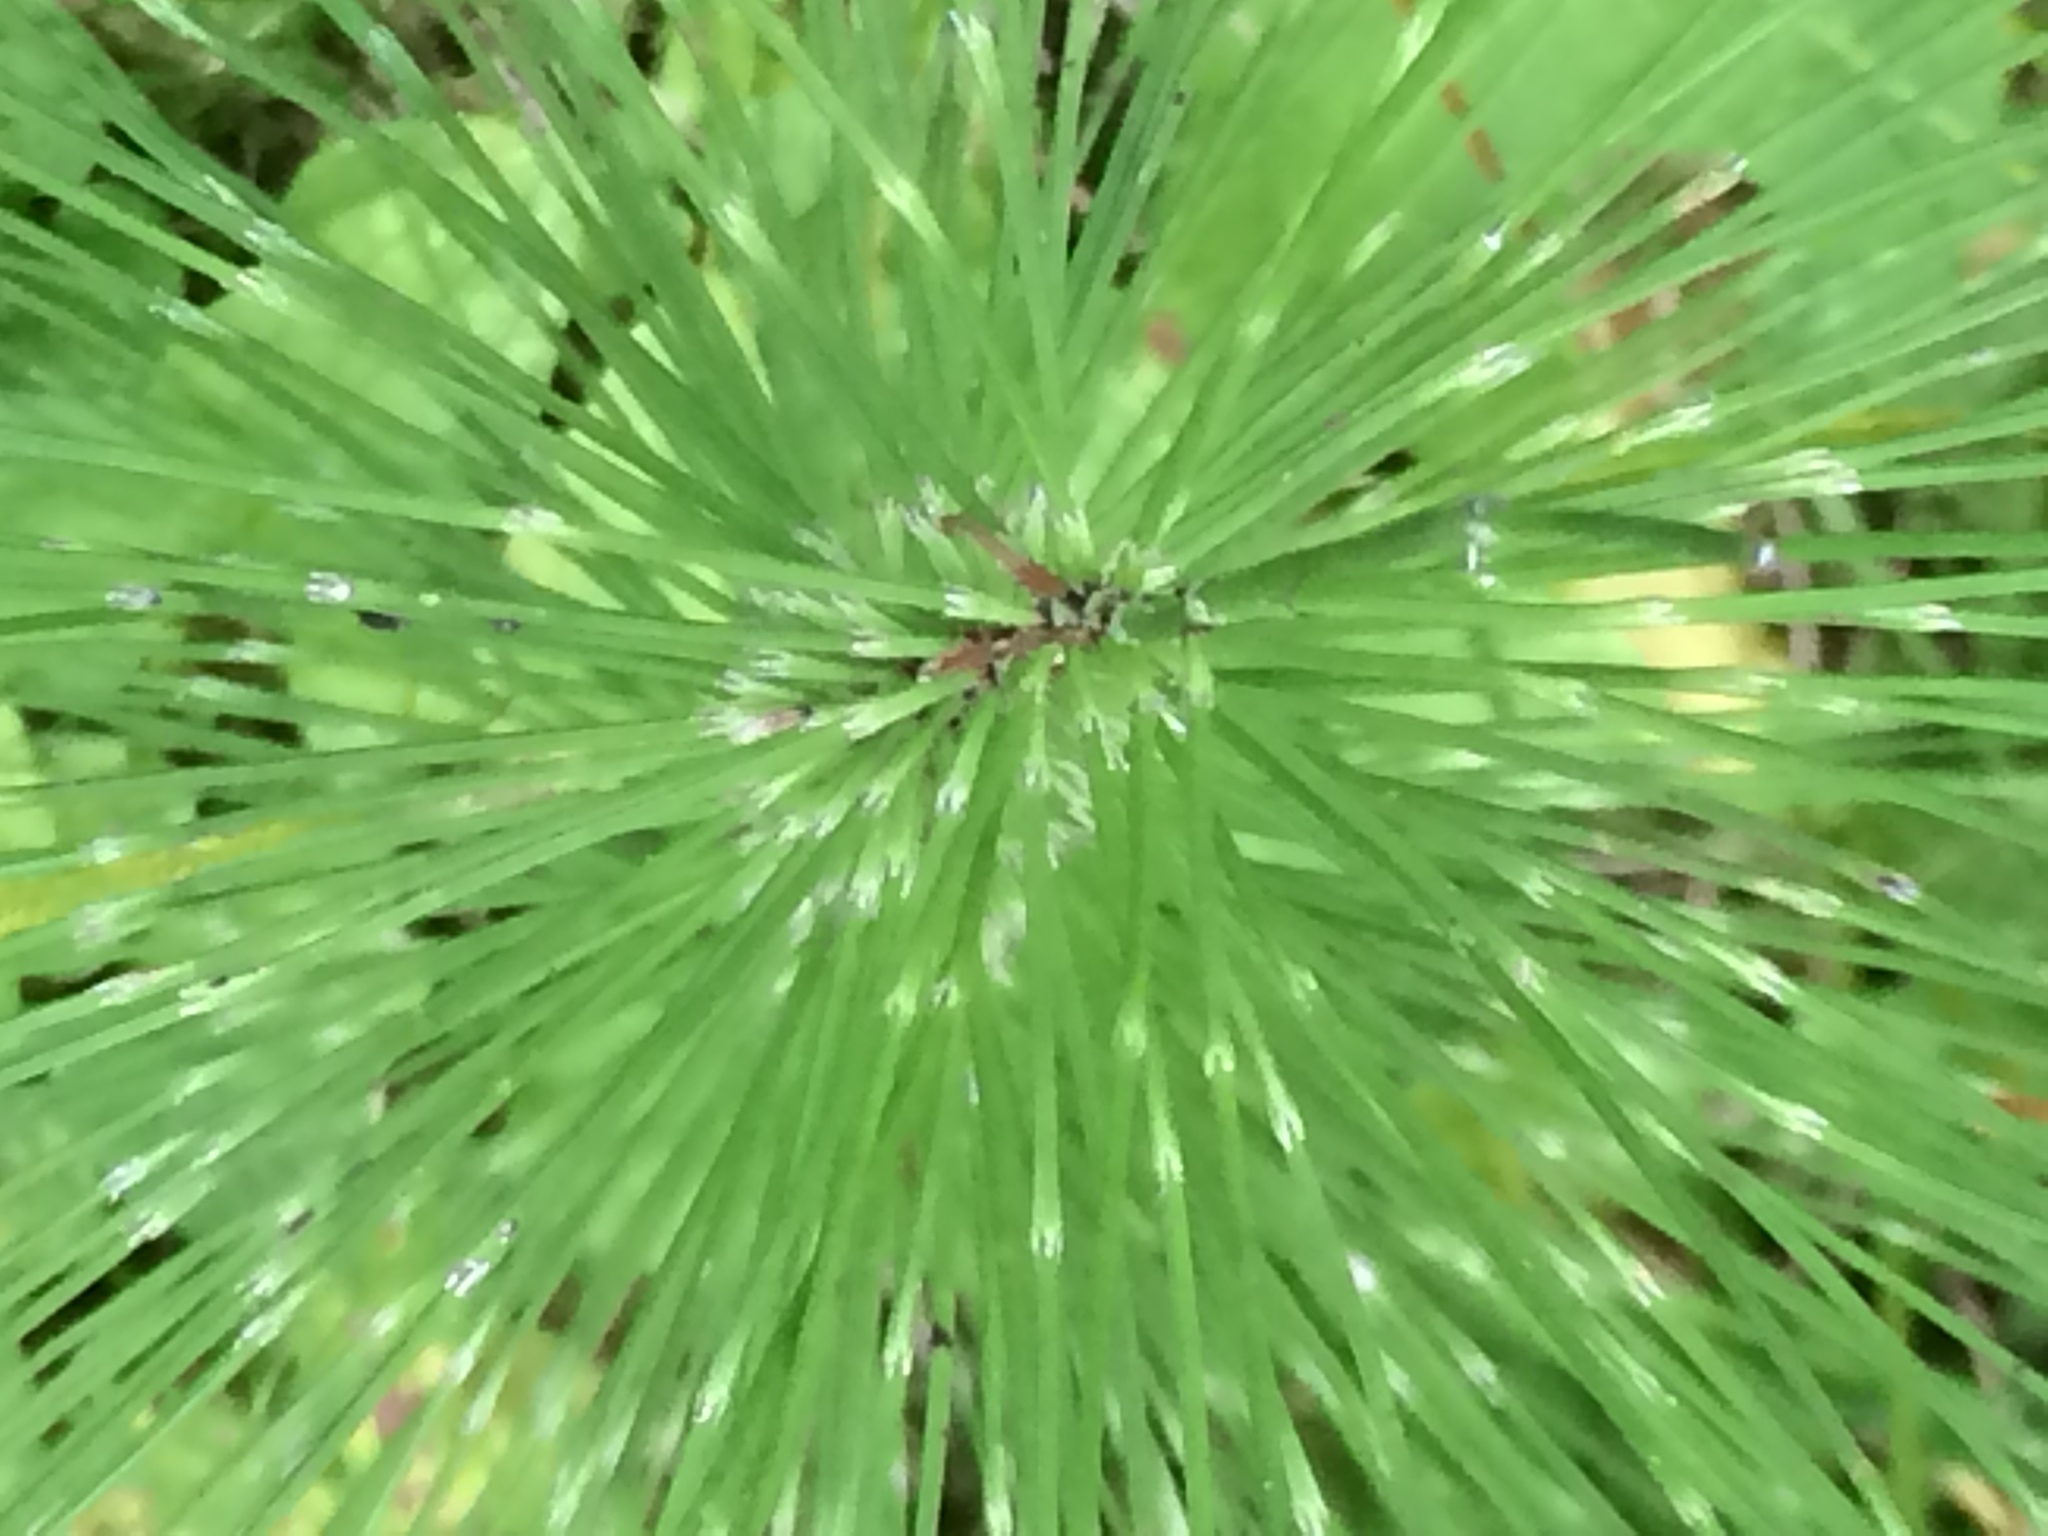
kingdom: Plantae
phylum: Tracheophyta
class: Polypodiopsida
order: Equisetales
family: Equisetaceae
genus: Equisetum
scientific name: Equisetum telmateia
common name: Great horsetail
